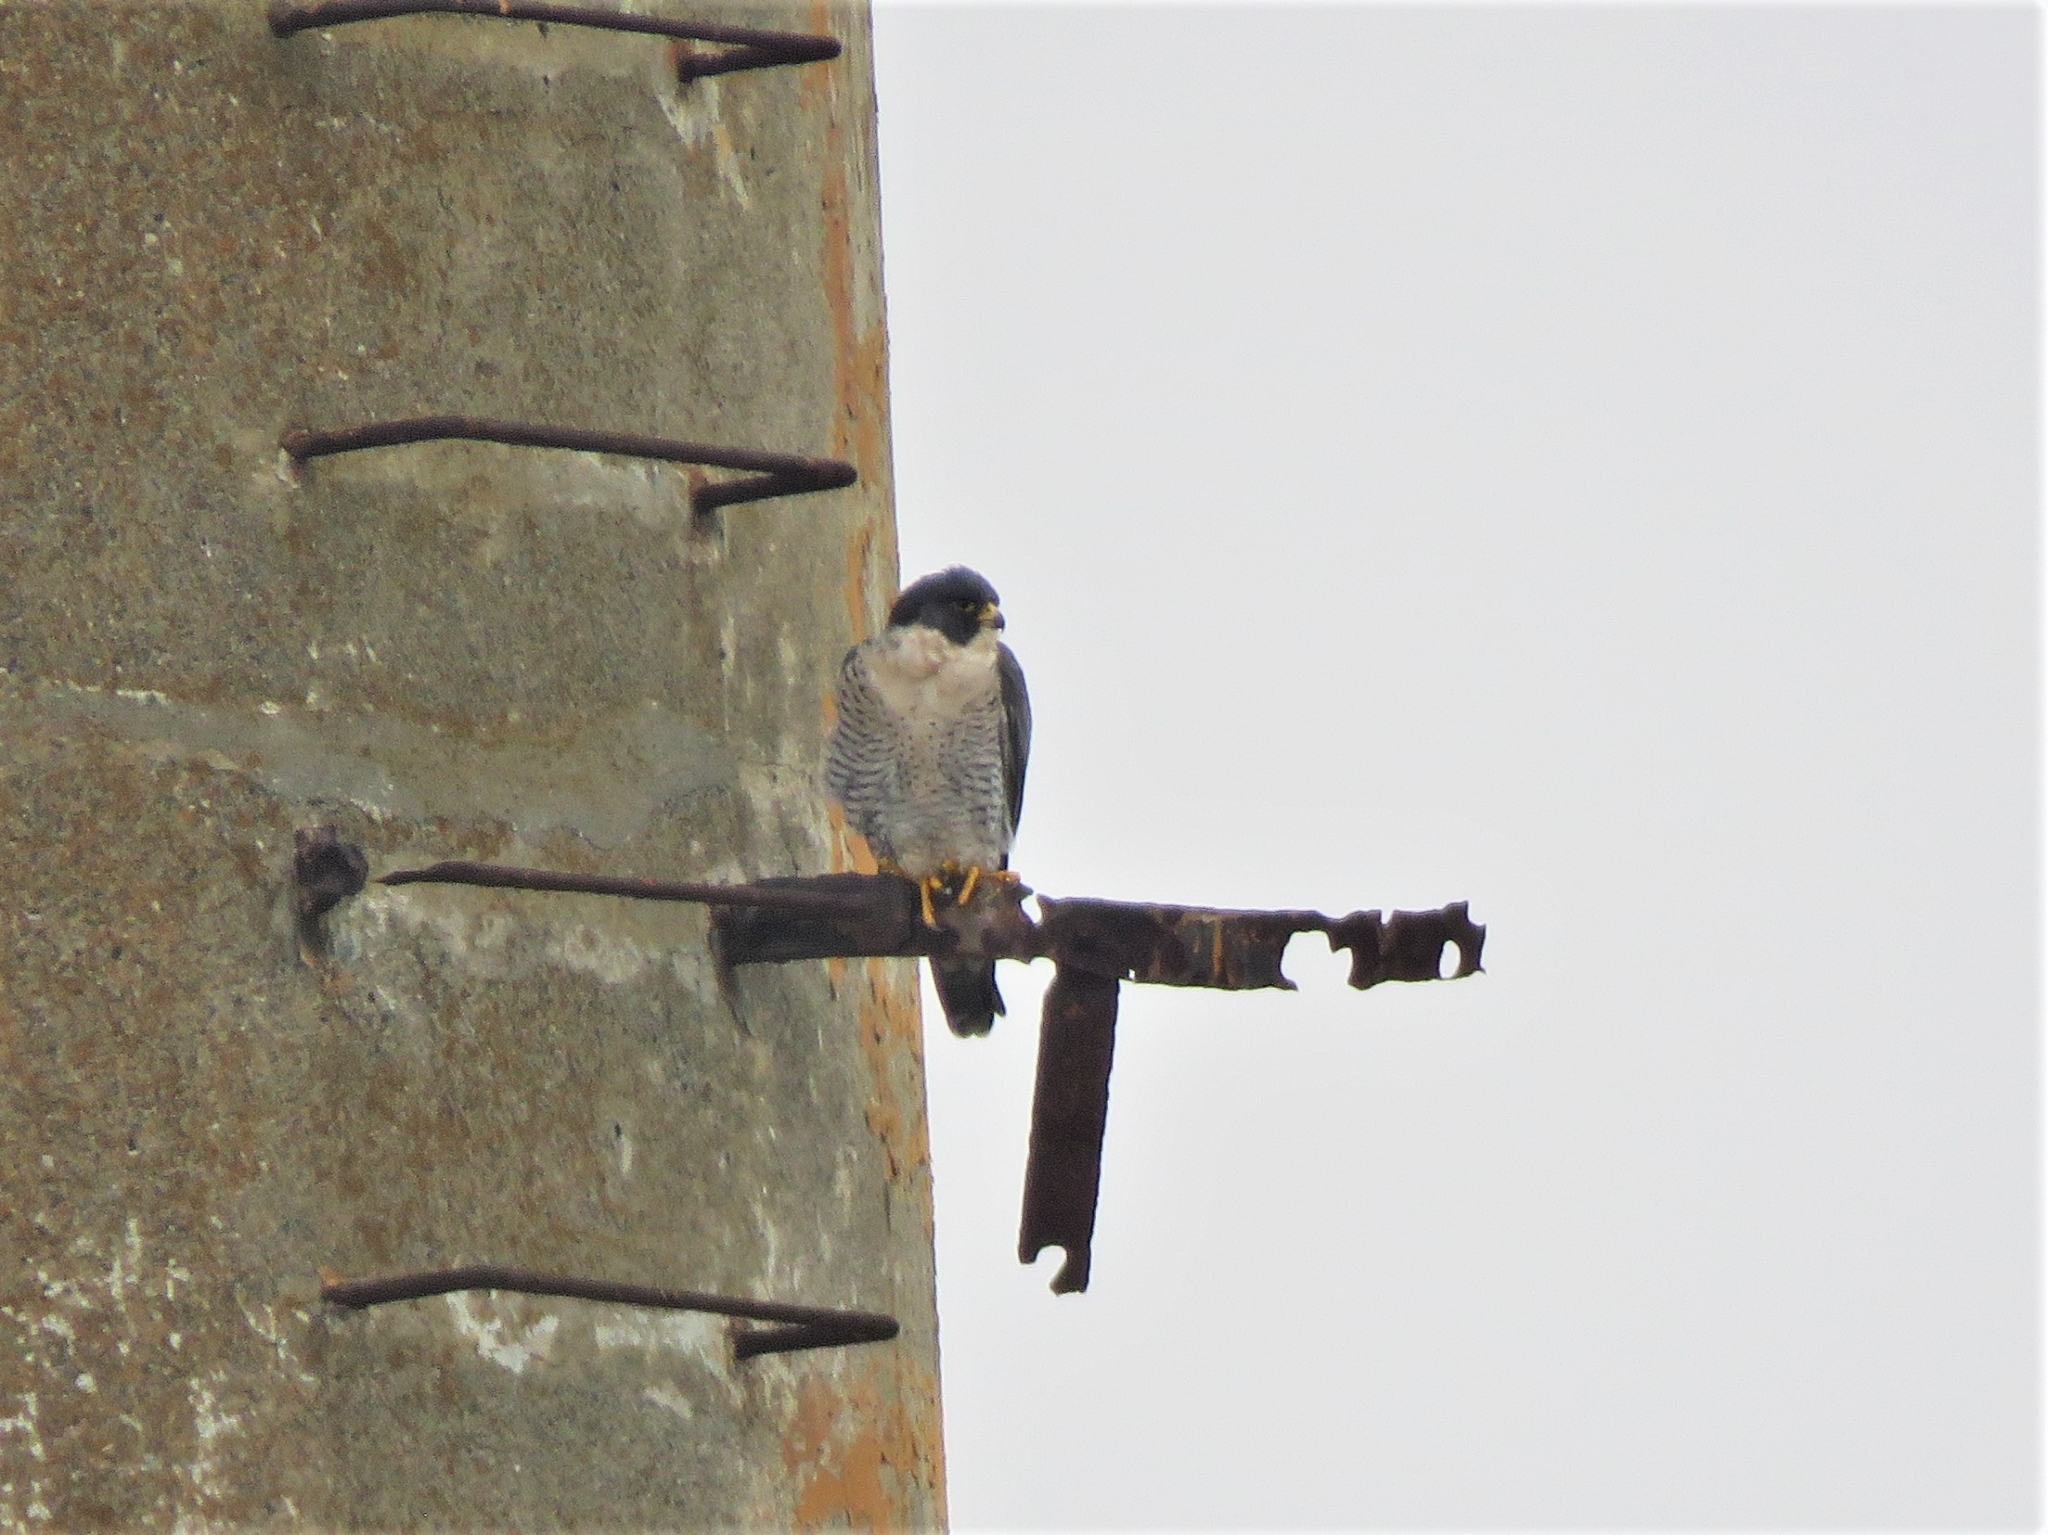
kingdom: Animalia
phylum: Chordata
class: Aves
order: Falconiformes
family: Falconidae
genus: Falco
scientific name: Falco peregrinus
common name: Peregrine falcon
